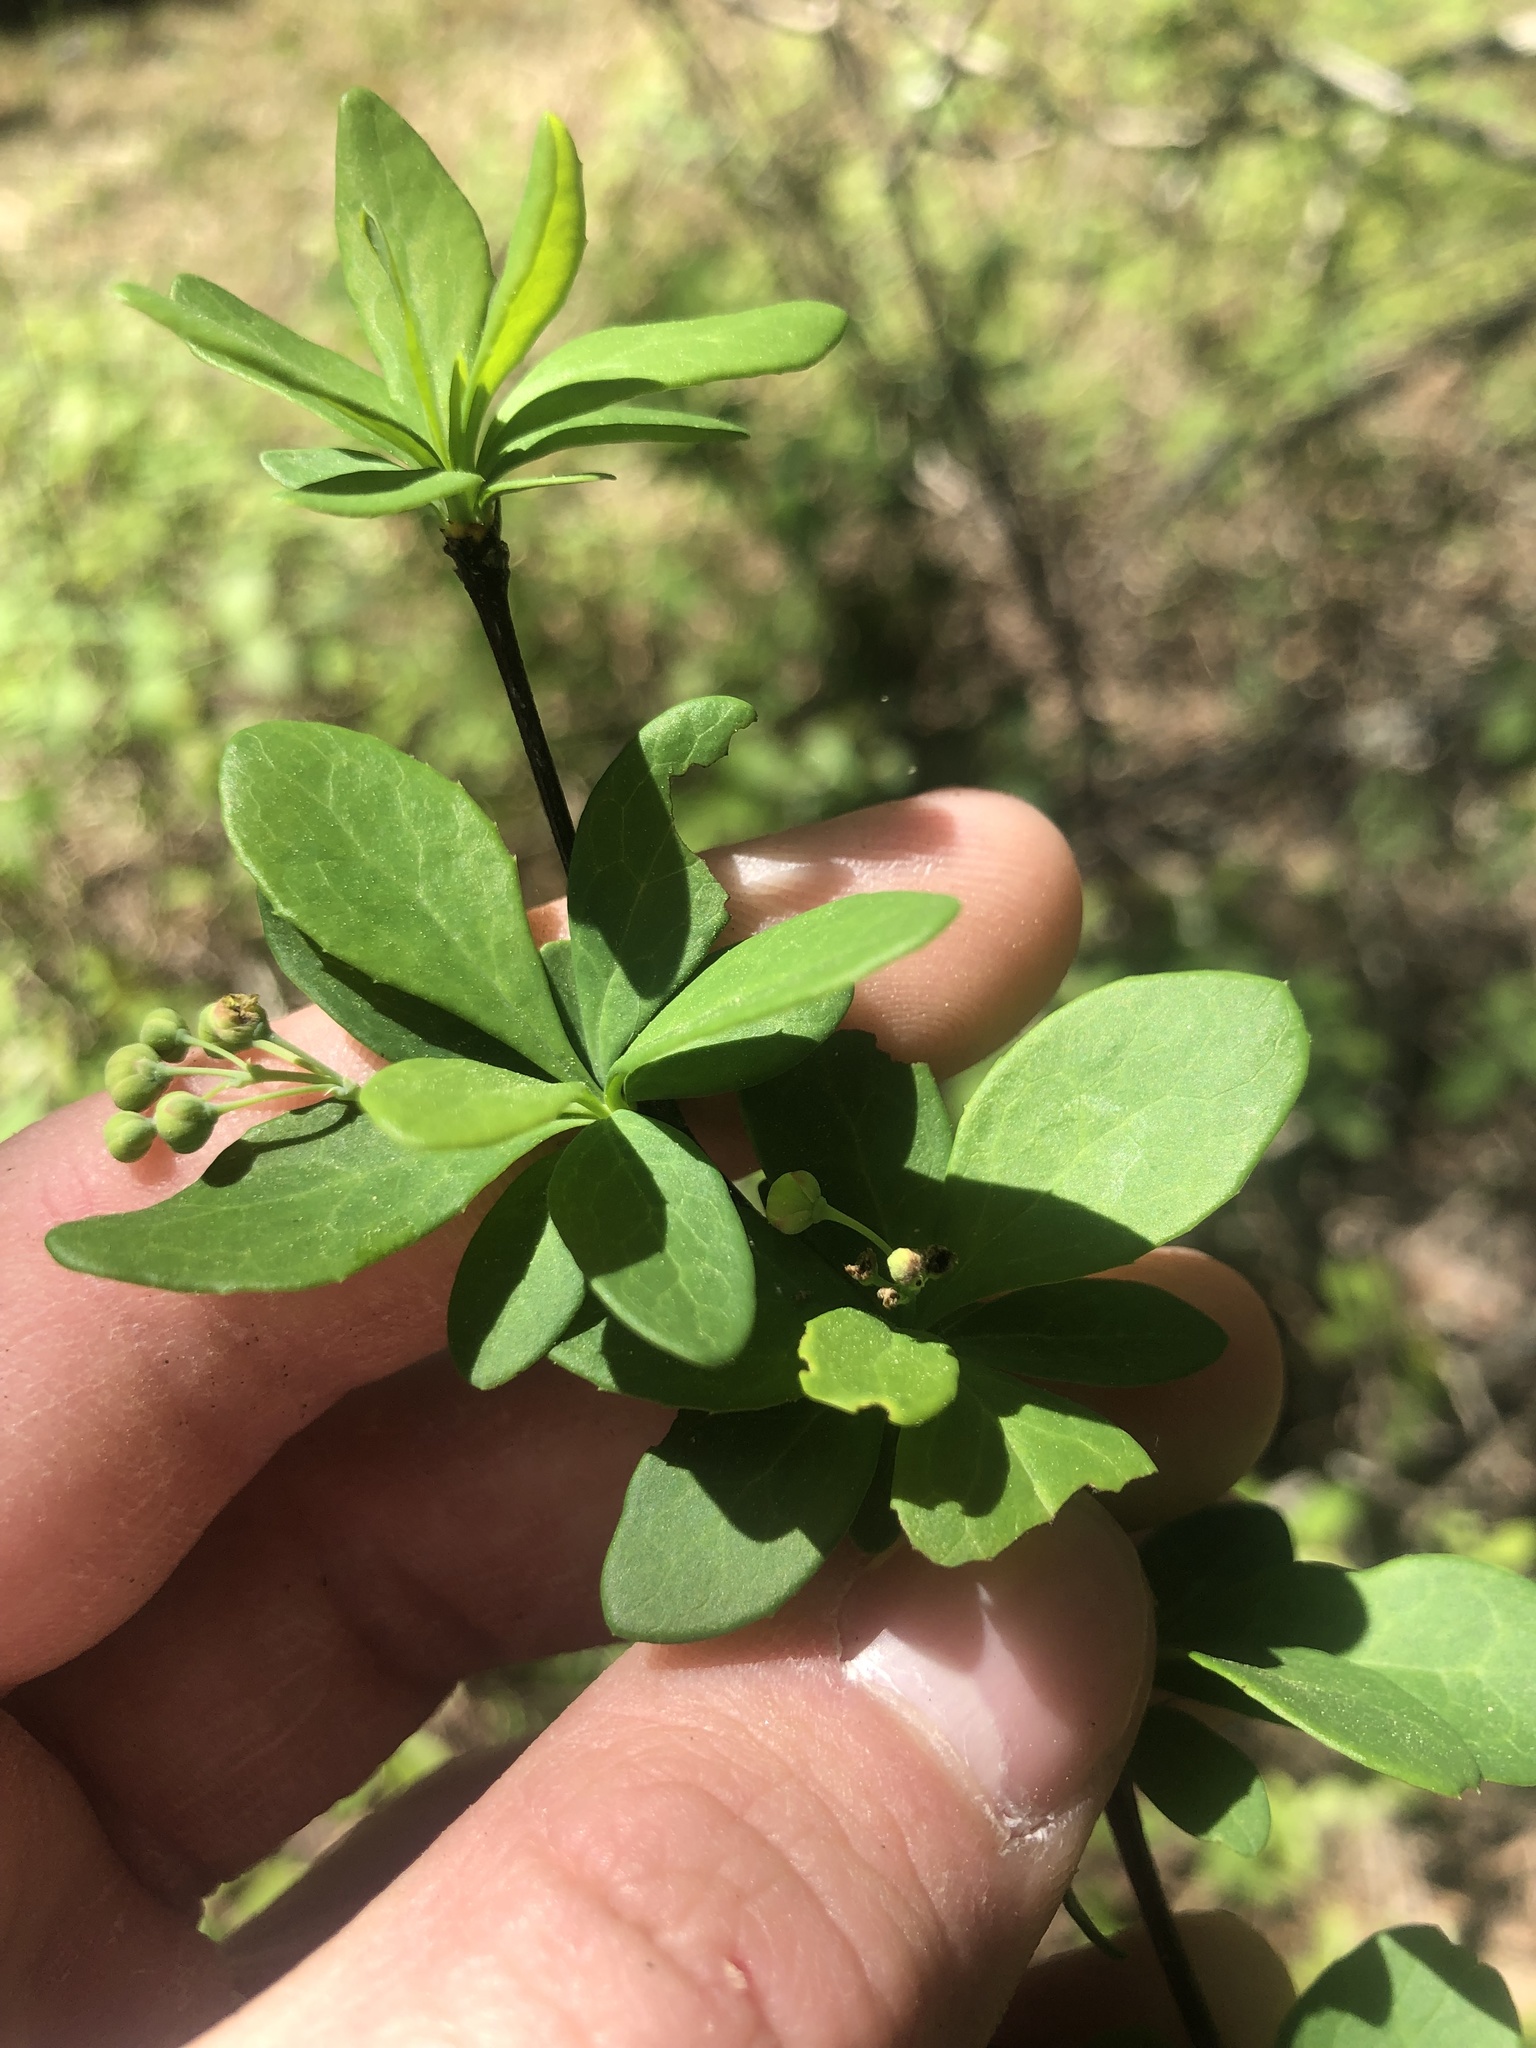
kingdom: Plantae
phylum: Tracheophyta
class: Magnoliopsida
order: Ranunculales
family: Berberidaceae
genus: Berberis
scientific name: Berberis canadensis
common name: American barberry
